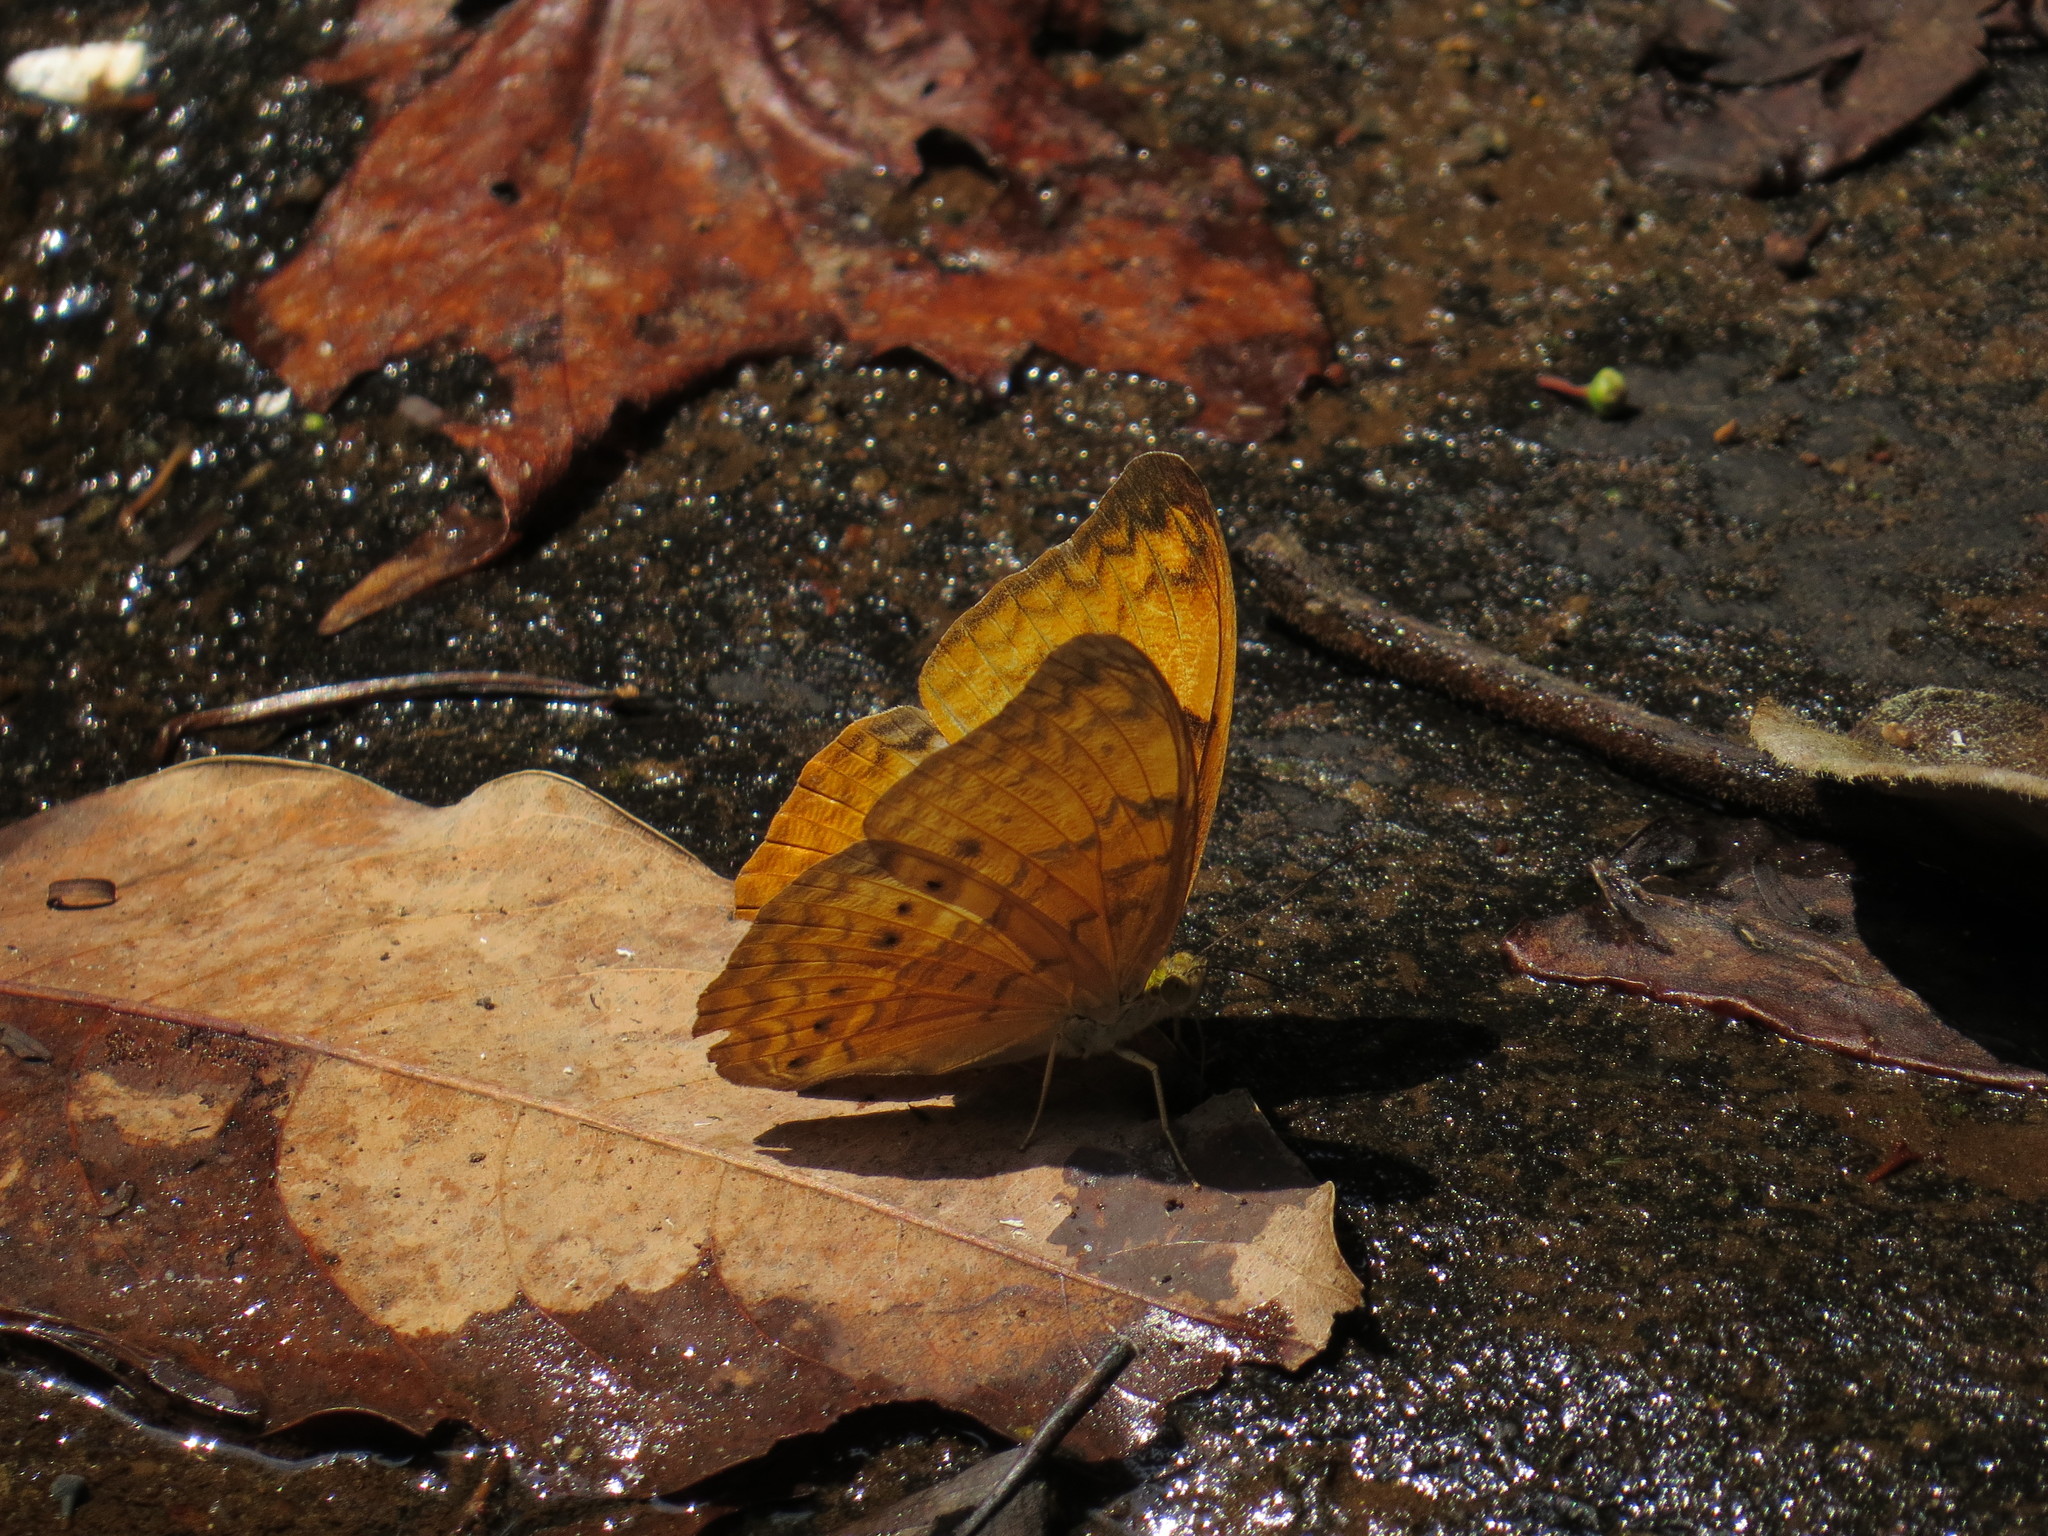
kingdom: Animalia
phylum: Arthropoda
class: Insecta
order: Lepidoptera
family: Nymphalidae
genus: Cirrochroa
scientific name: Cirrochroa tyche
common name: Common yeoman
